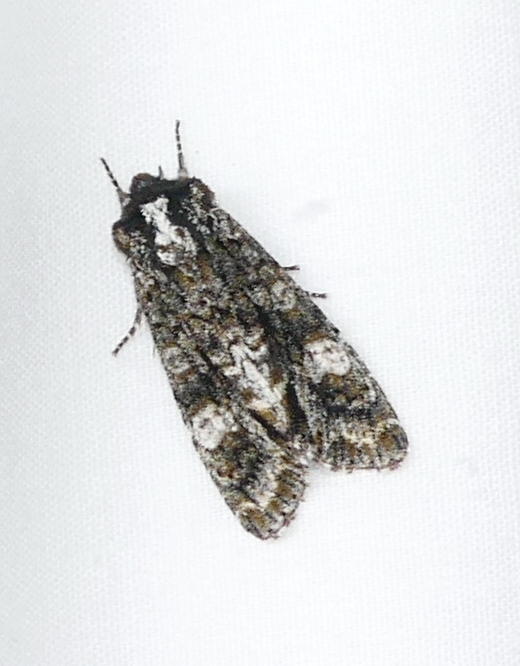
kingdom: Animalia
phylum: Arthropoda
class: Insecta
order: Lepidoptera
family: Noctuidae
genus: Psaphida
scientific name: Psaphida grotei
